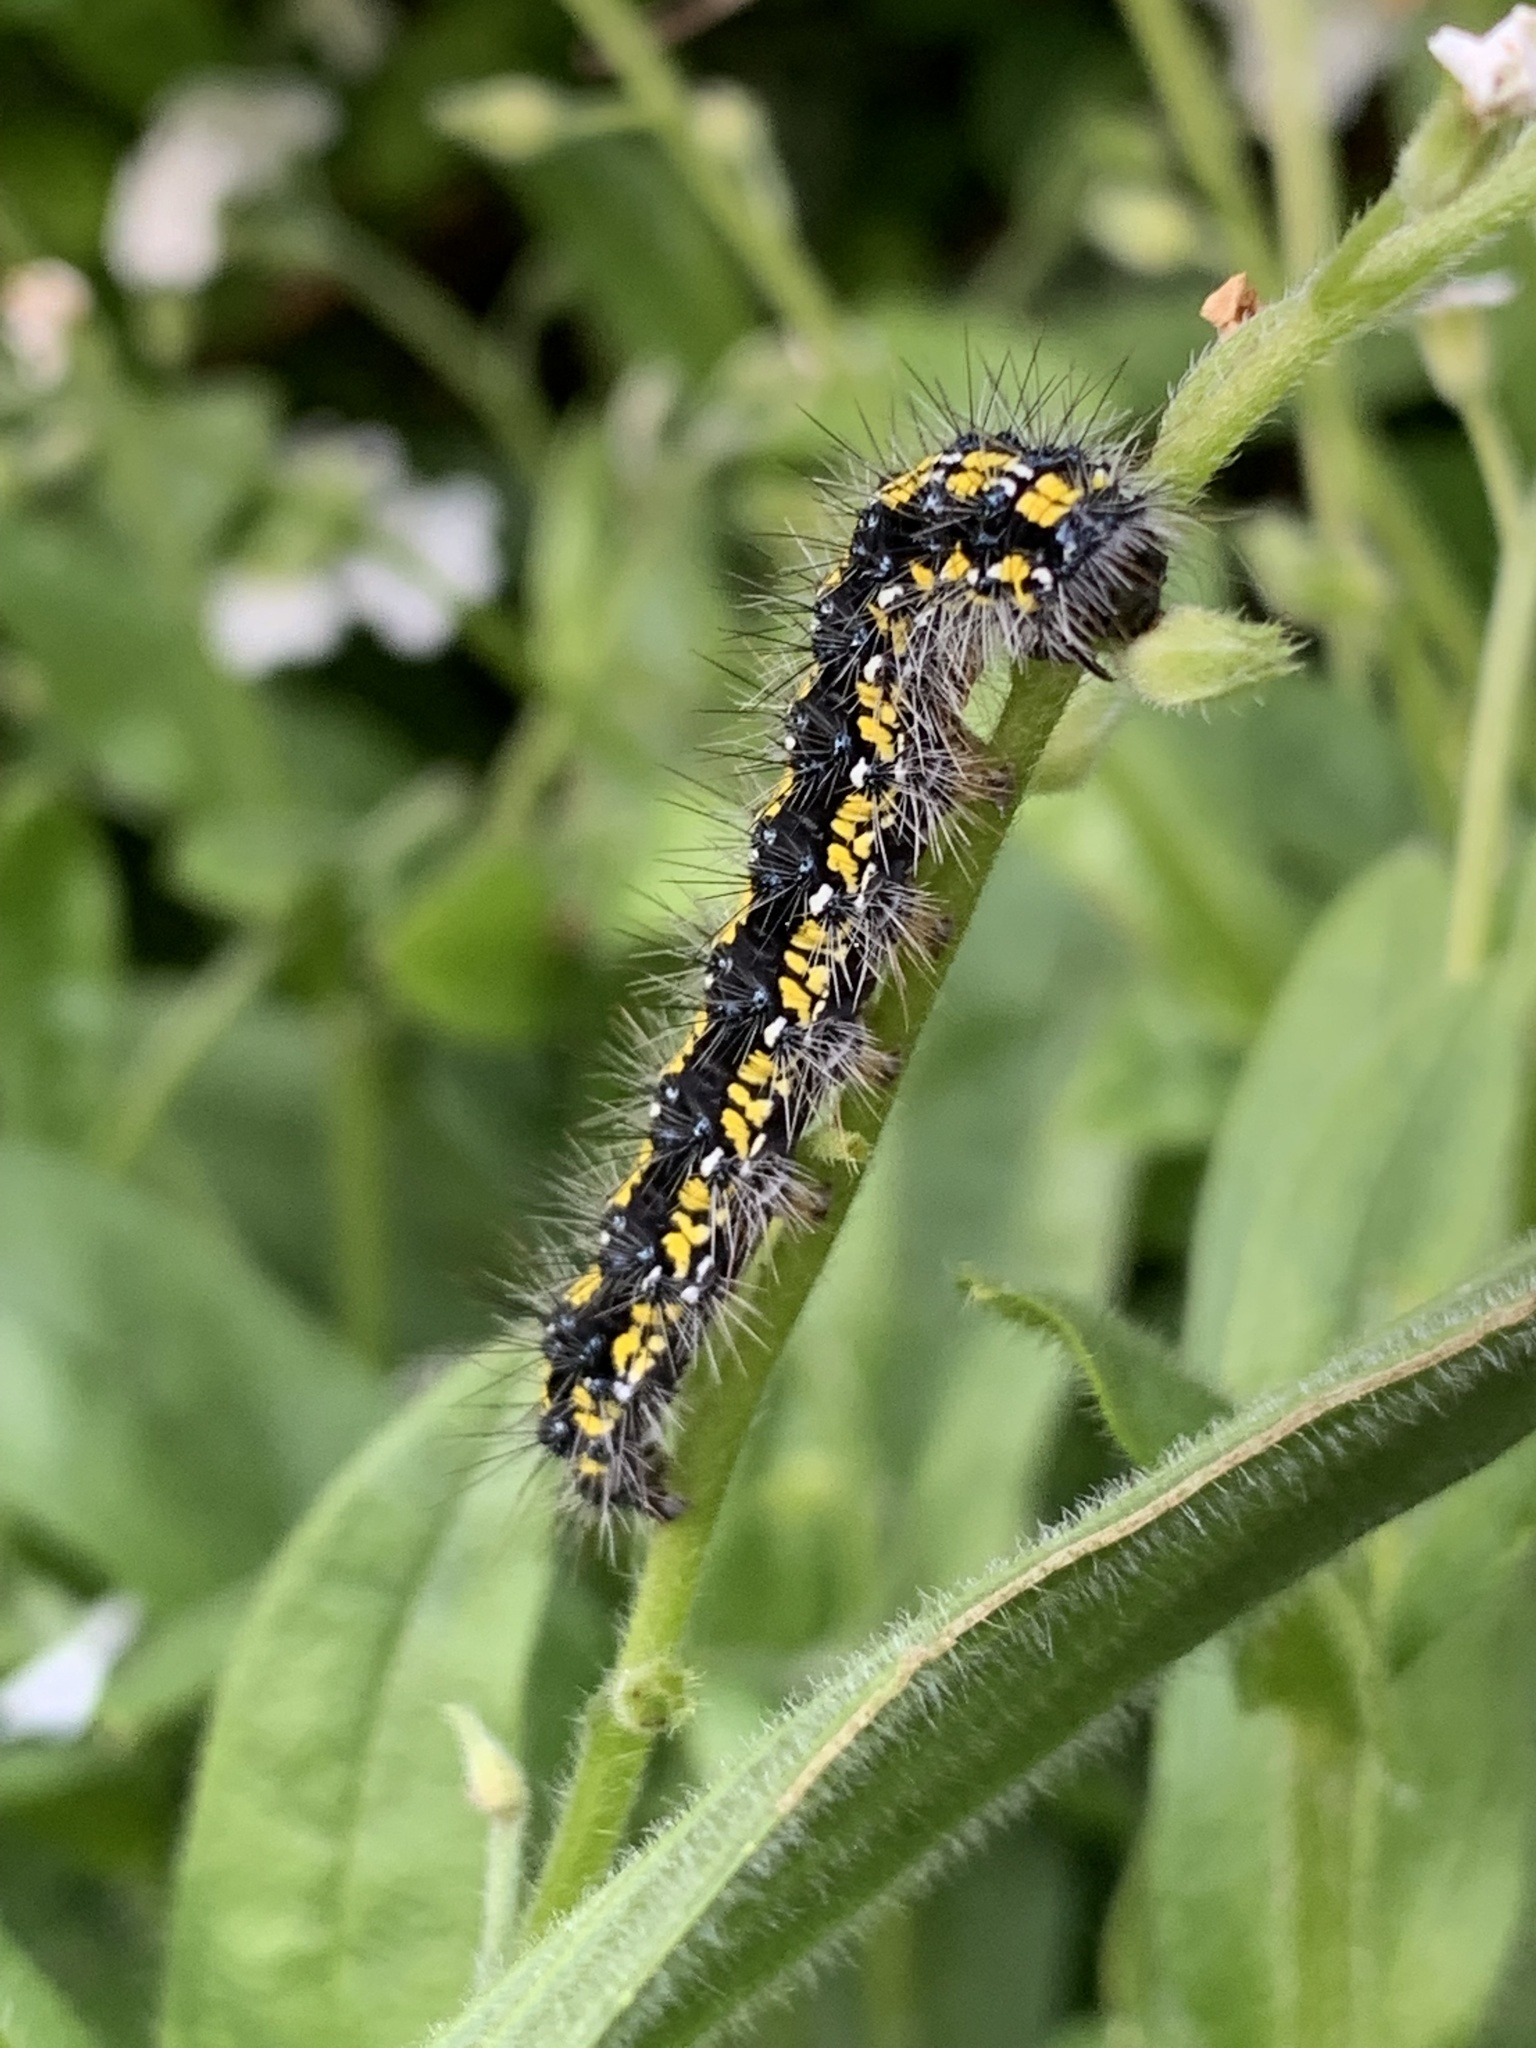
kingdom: Animalia
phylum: Arthropoda
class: Insecta
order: Lepidoptera
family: Erebidae
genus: Callimorpha
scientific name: Callimorpha dominula
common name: Scarlet tiger
